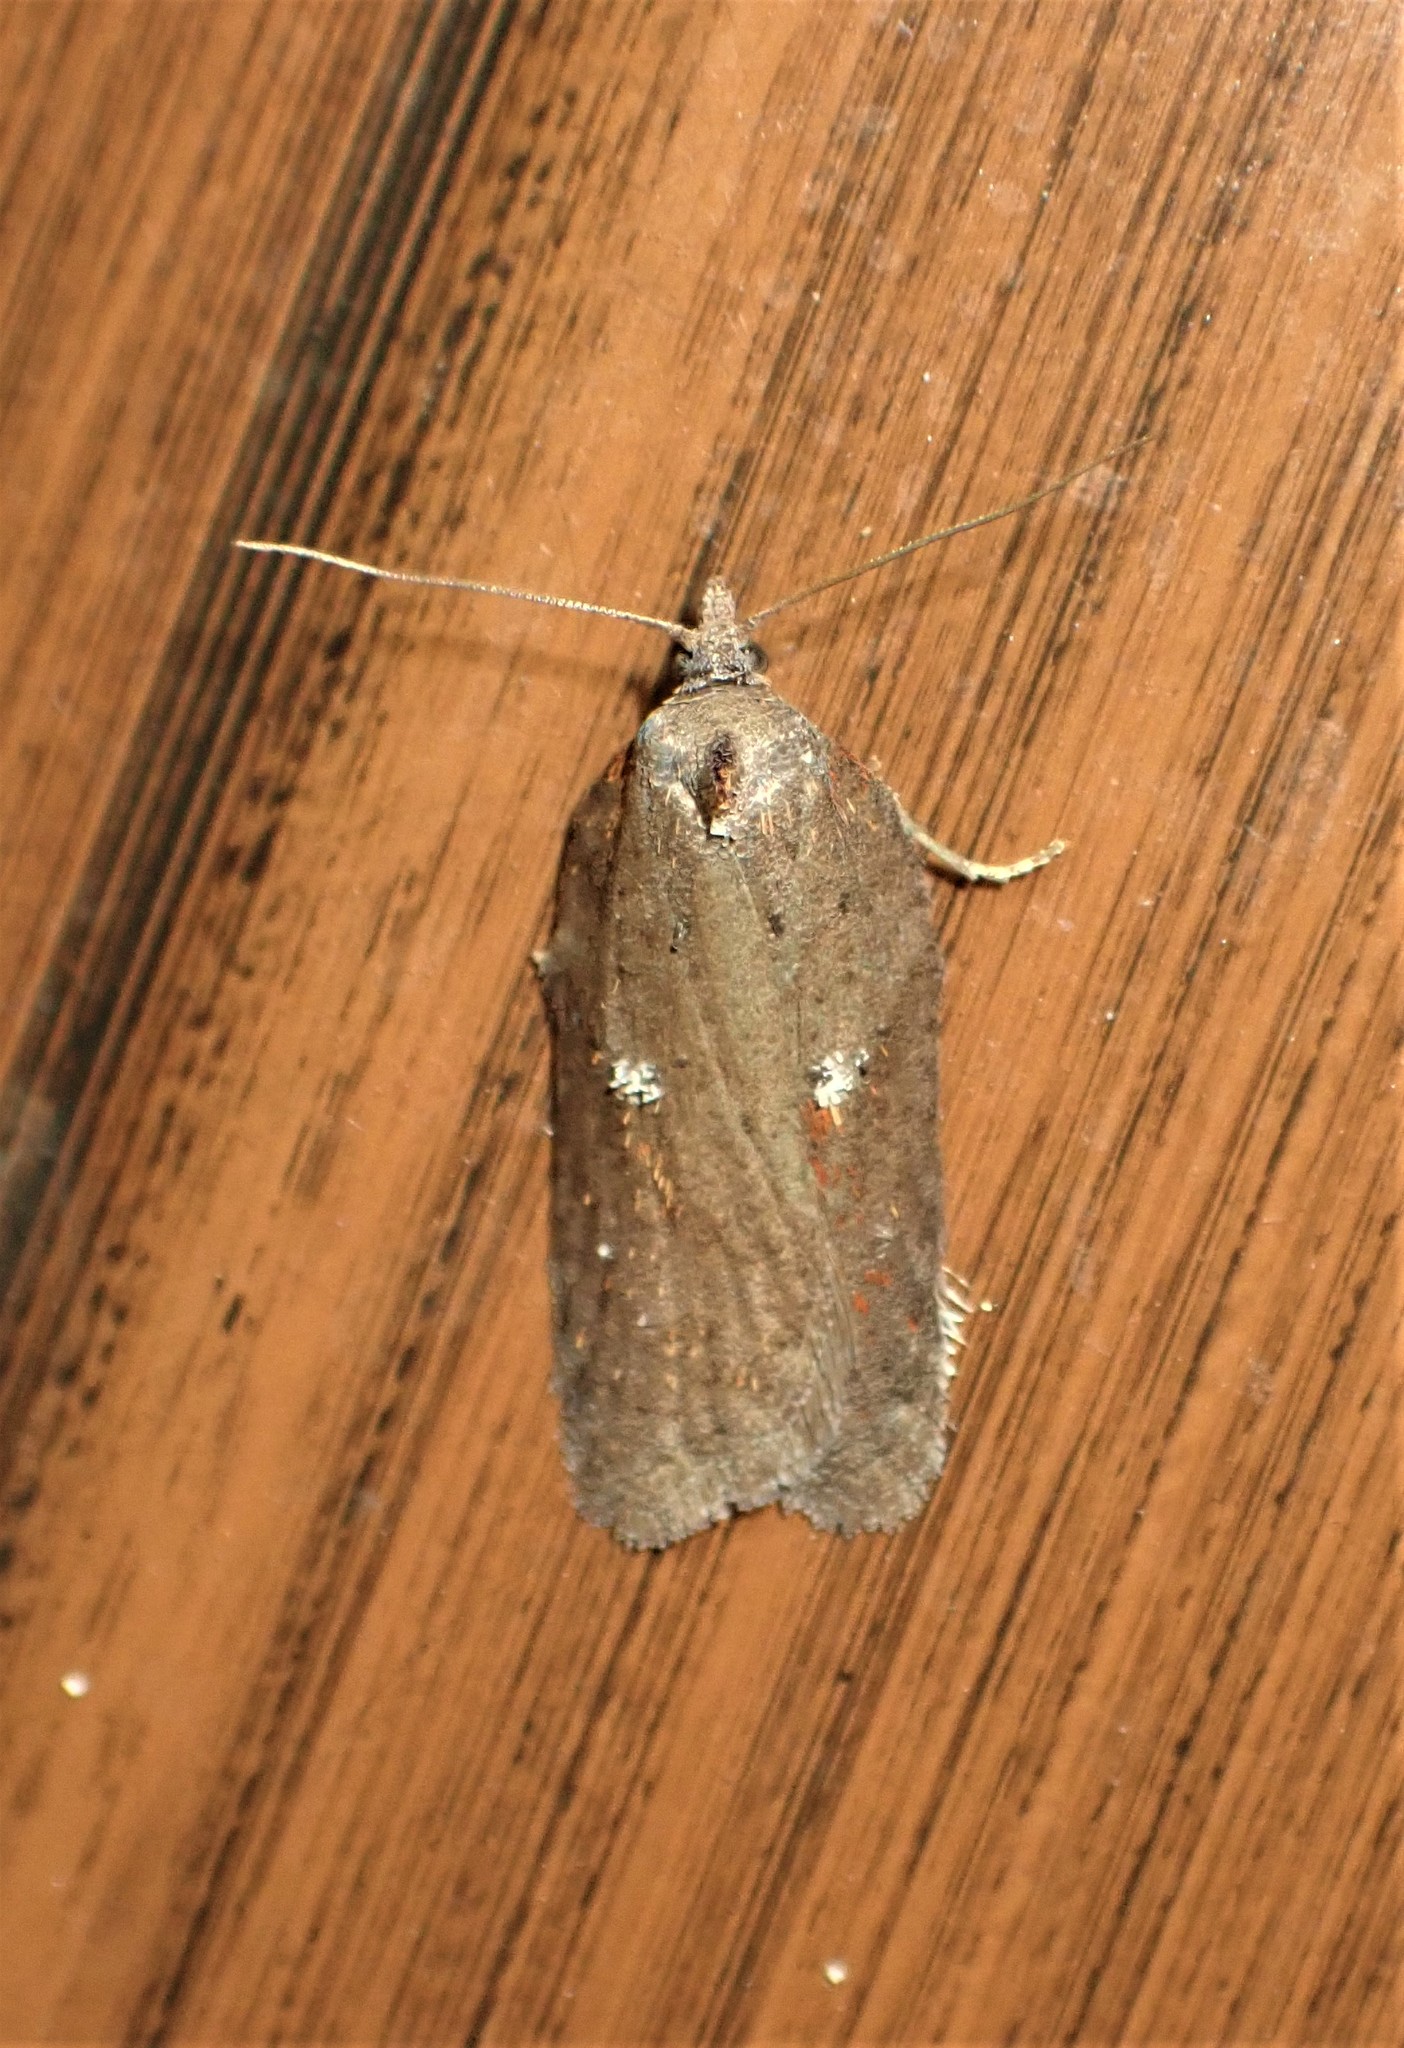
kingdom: Animalia
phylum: Arthropoda
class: Insecta
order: Lepidoptera
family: Tortricidae
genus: Acleris
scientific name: Acleris bowmanana
